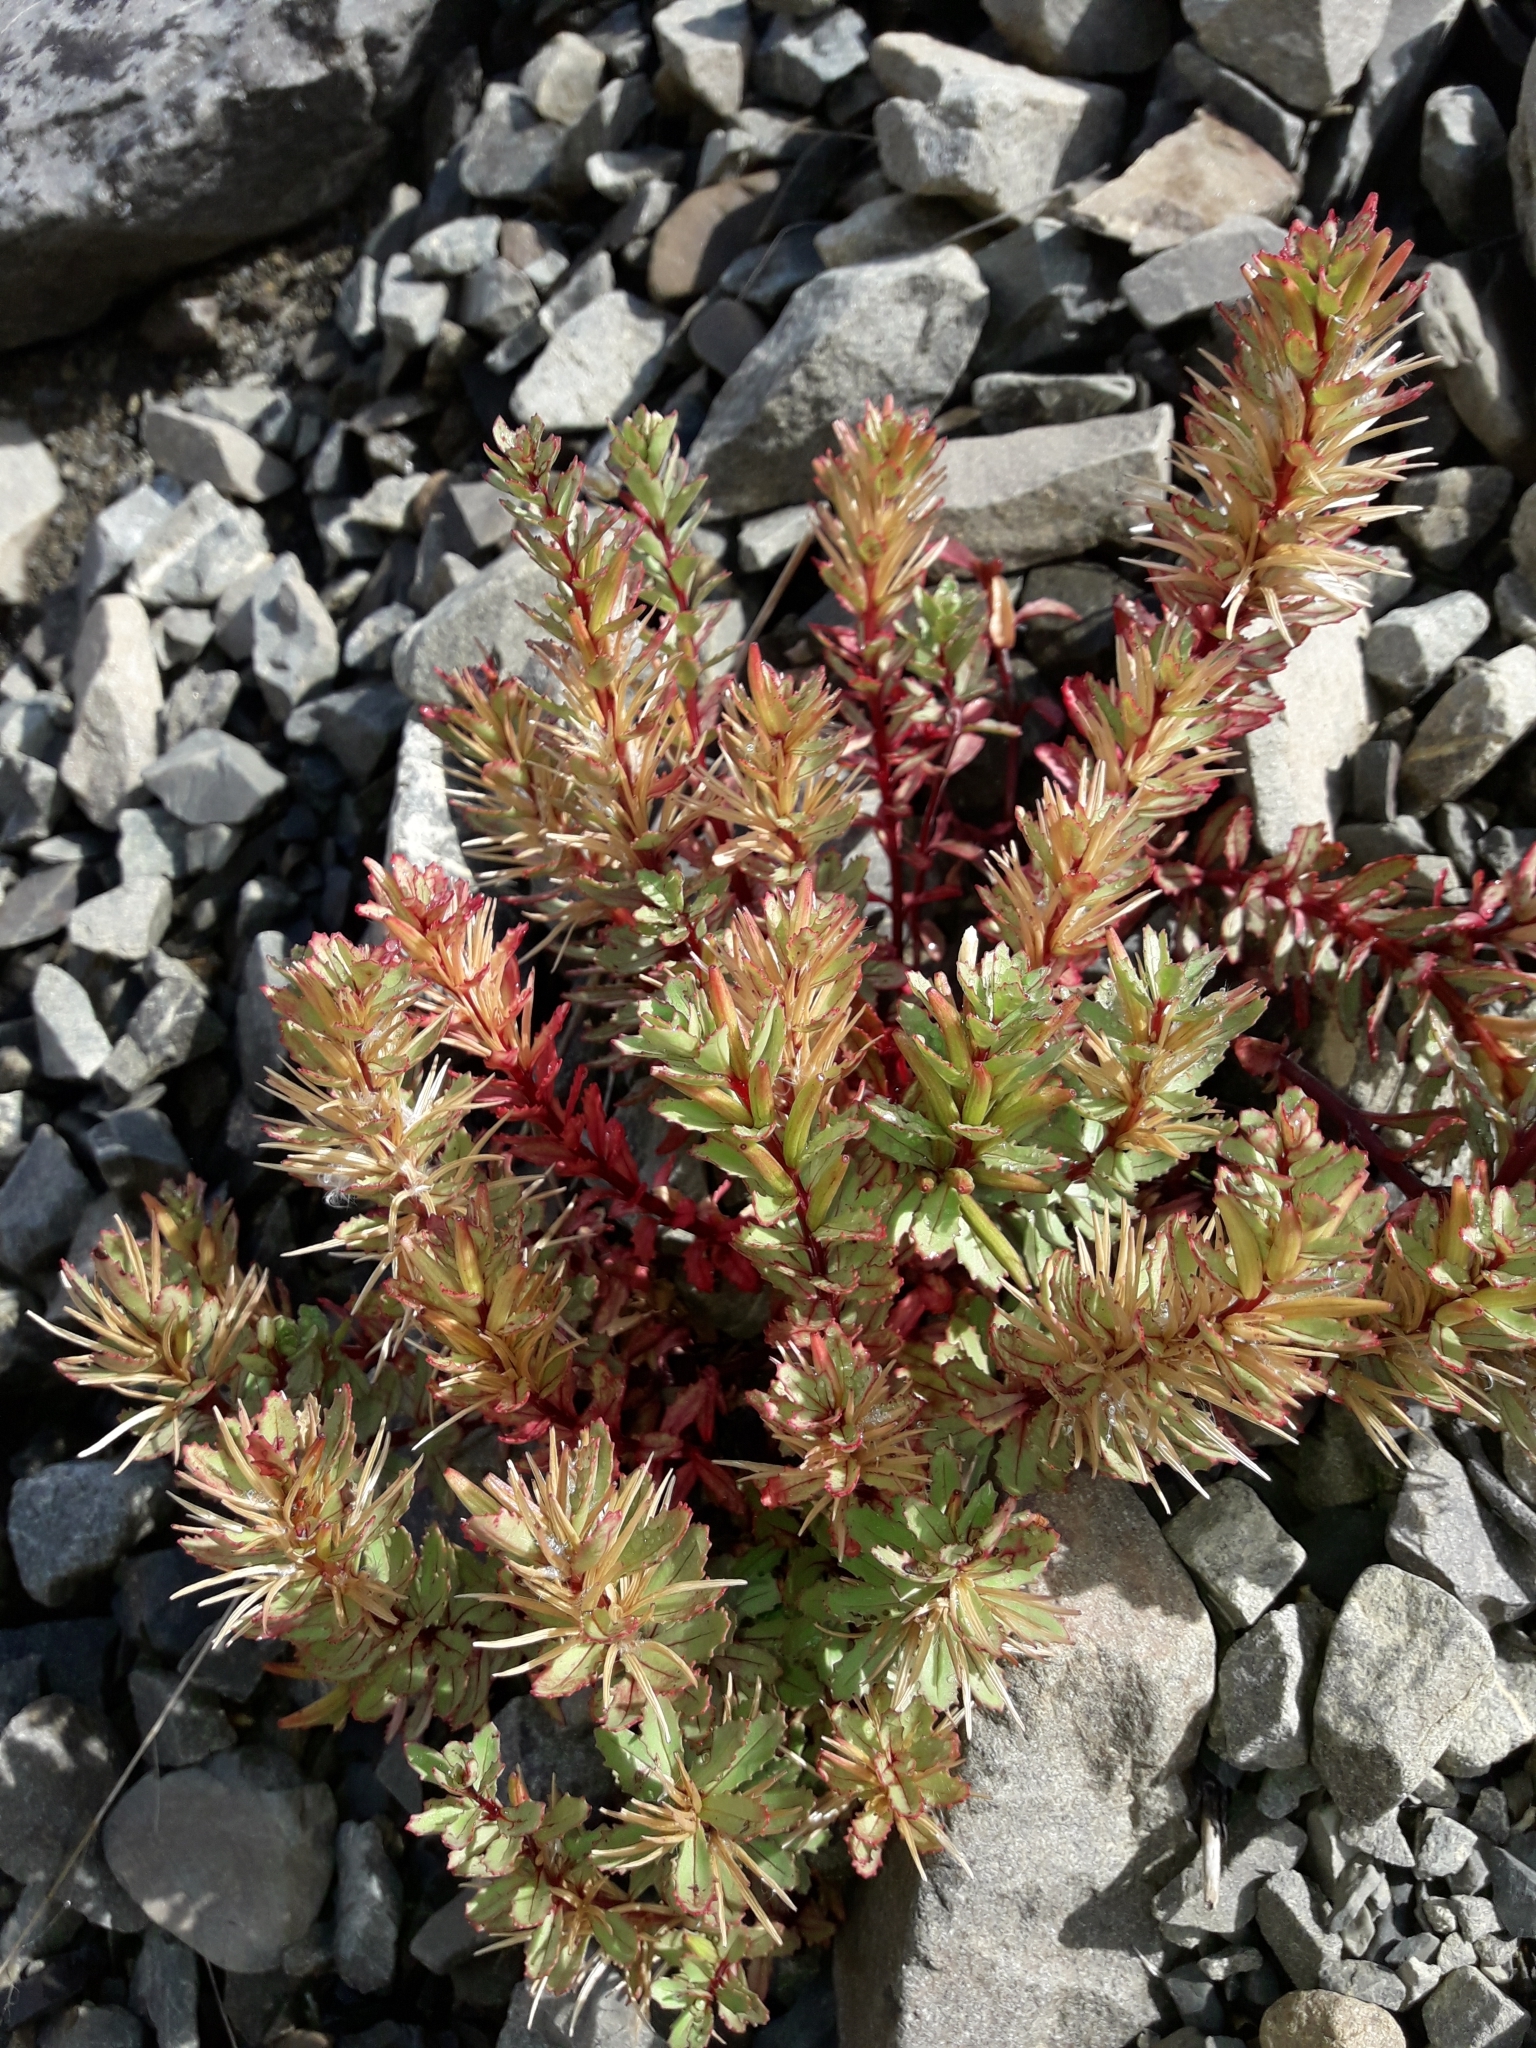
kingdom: Plantae
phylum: Tracheophyta
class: Magnoliopsida
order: Myrtales
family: Onagraceae
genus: Epilobium
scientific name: Epilobium pycnostachyum
